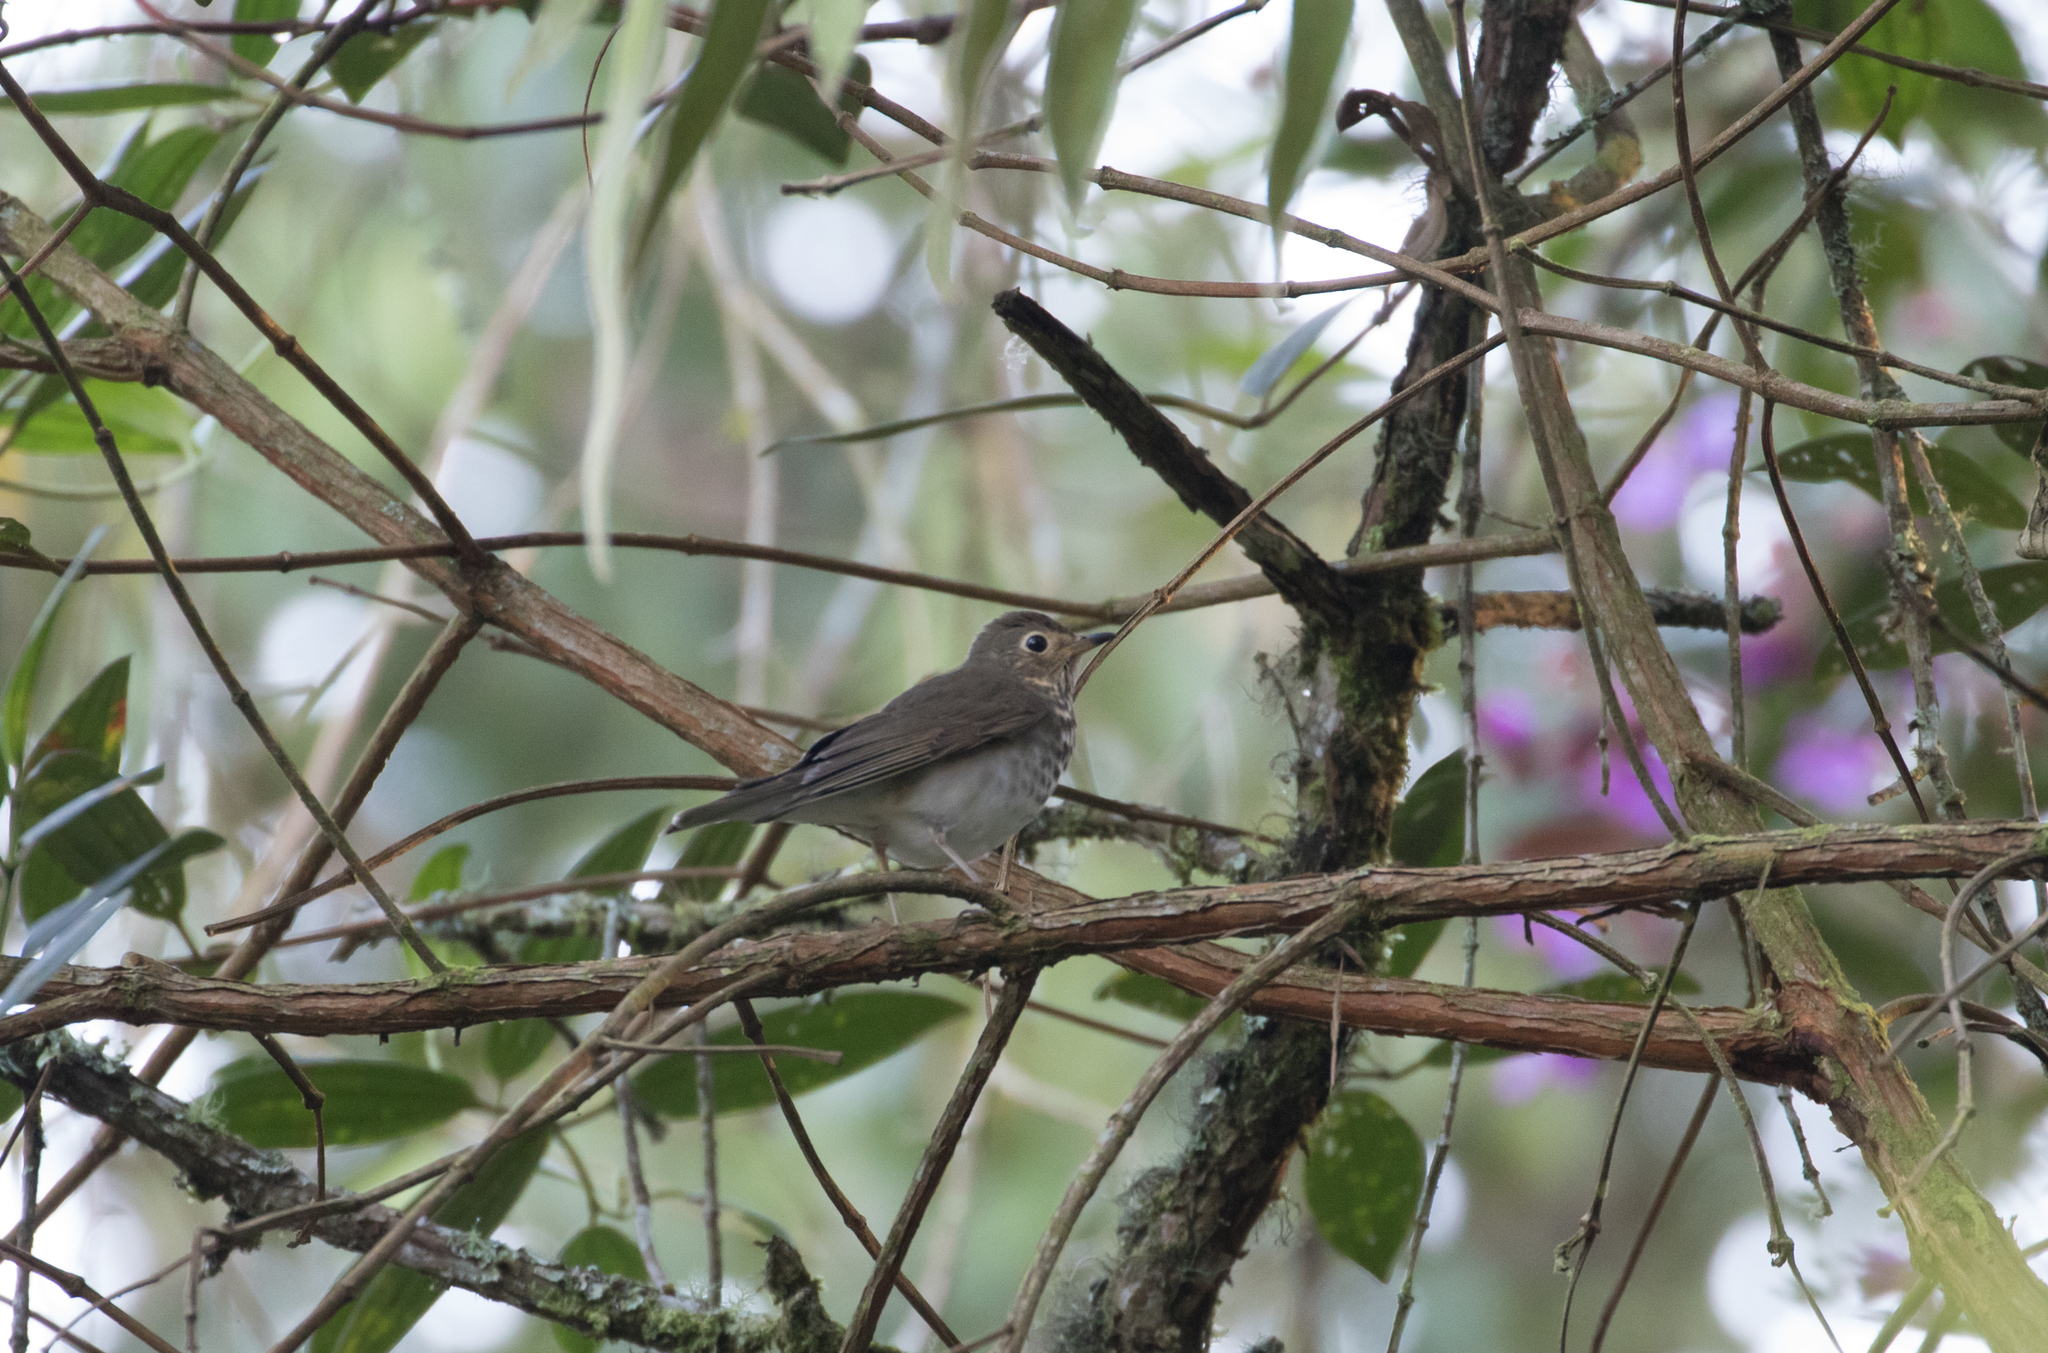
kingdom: Animalia
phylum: Chordata
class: Aves
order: Passeriformes
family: Turdidae
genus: Catharus
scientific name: Catharus ustulatus
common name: Swainson's thrush
